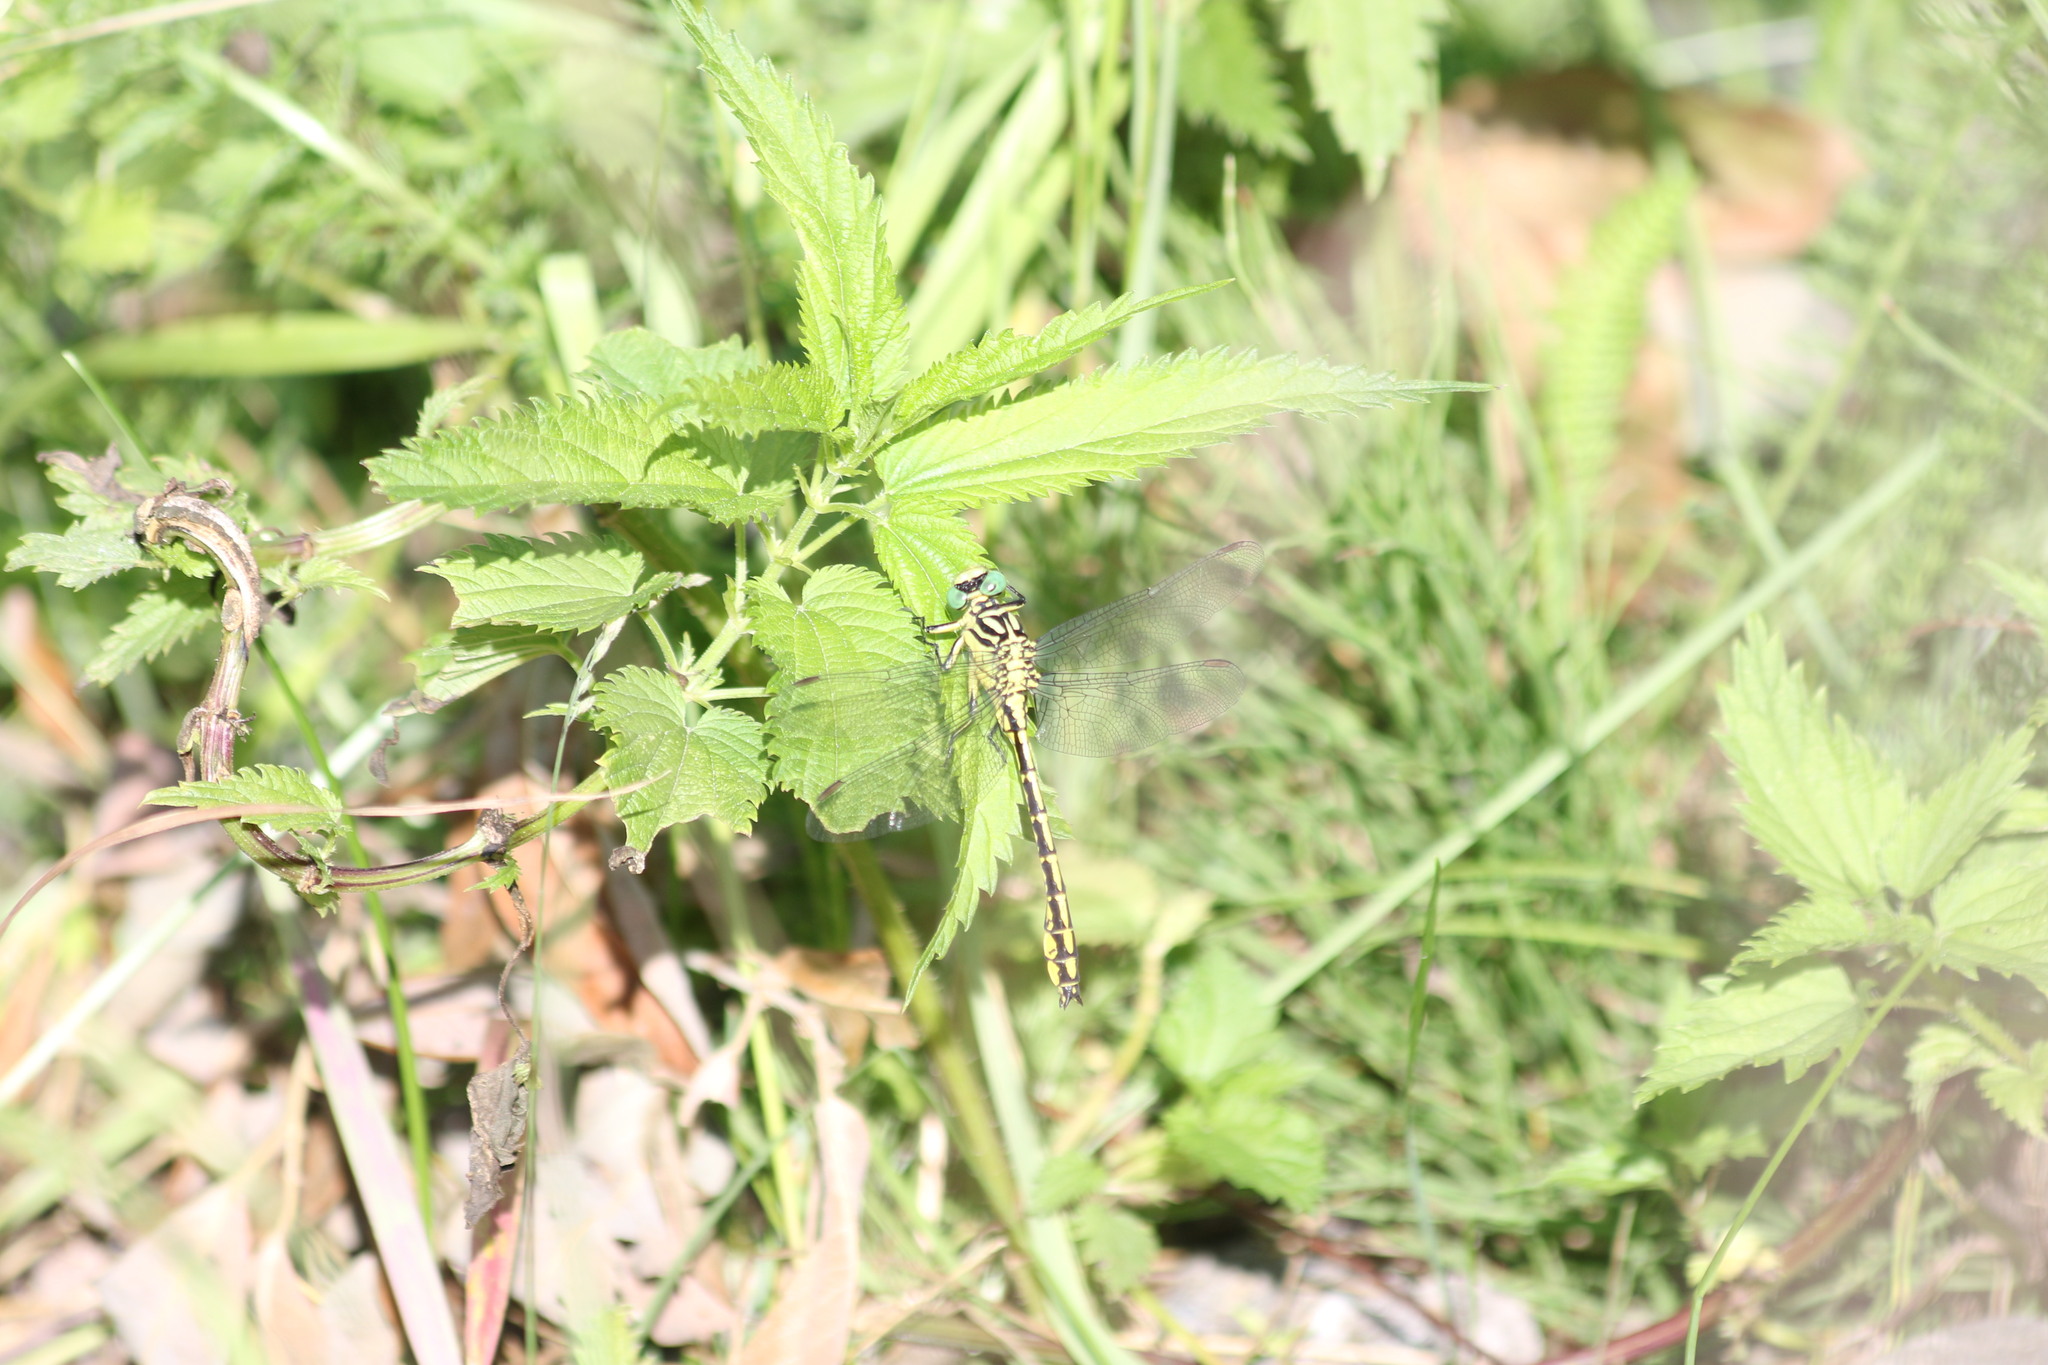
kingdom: Animalia
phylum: Arthropoda
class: Insecta
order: Odonata
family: Gomphidae
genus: Stylurus
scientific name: Stylurus flavipes
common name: River clubtail
